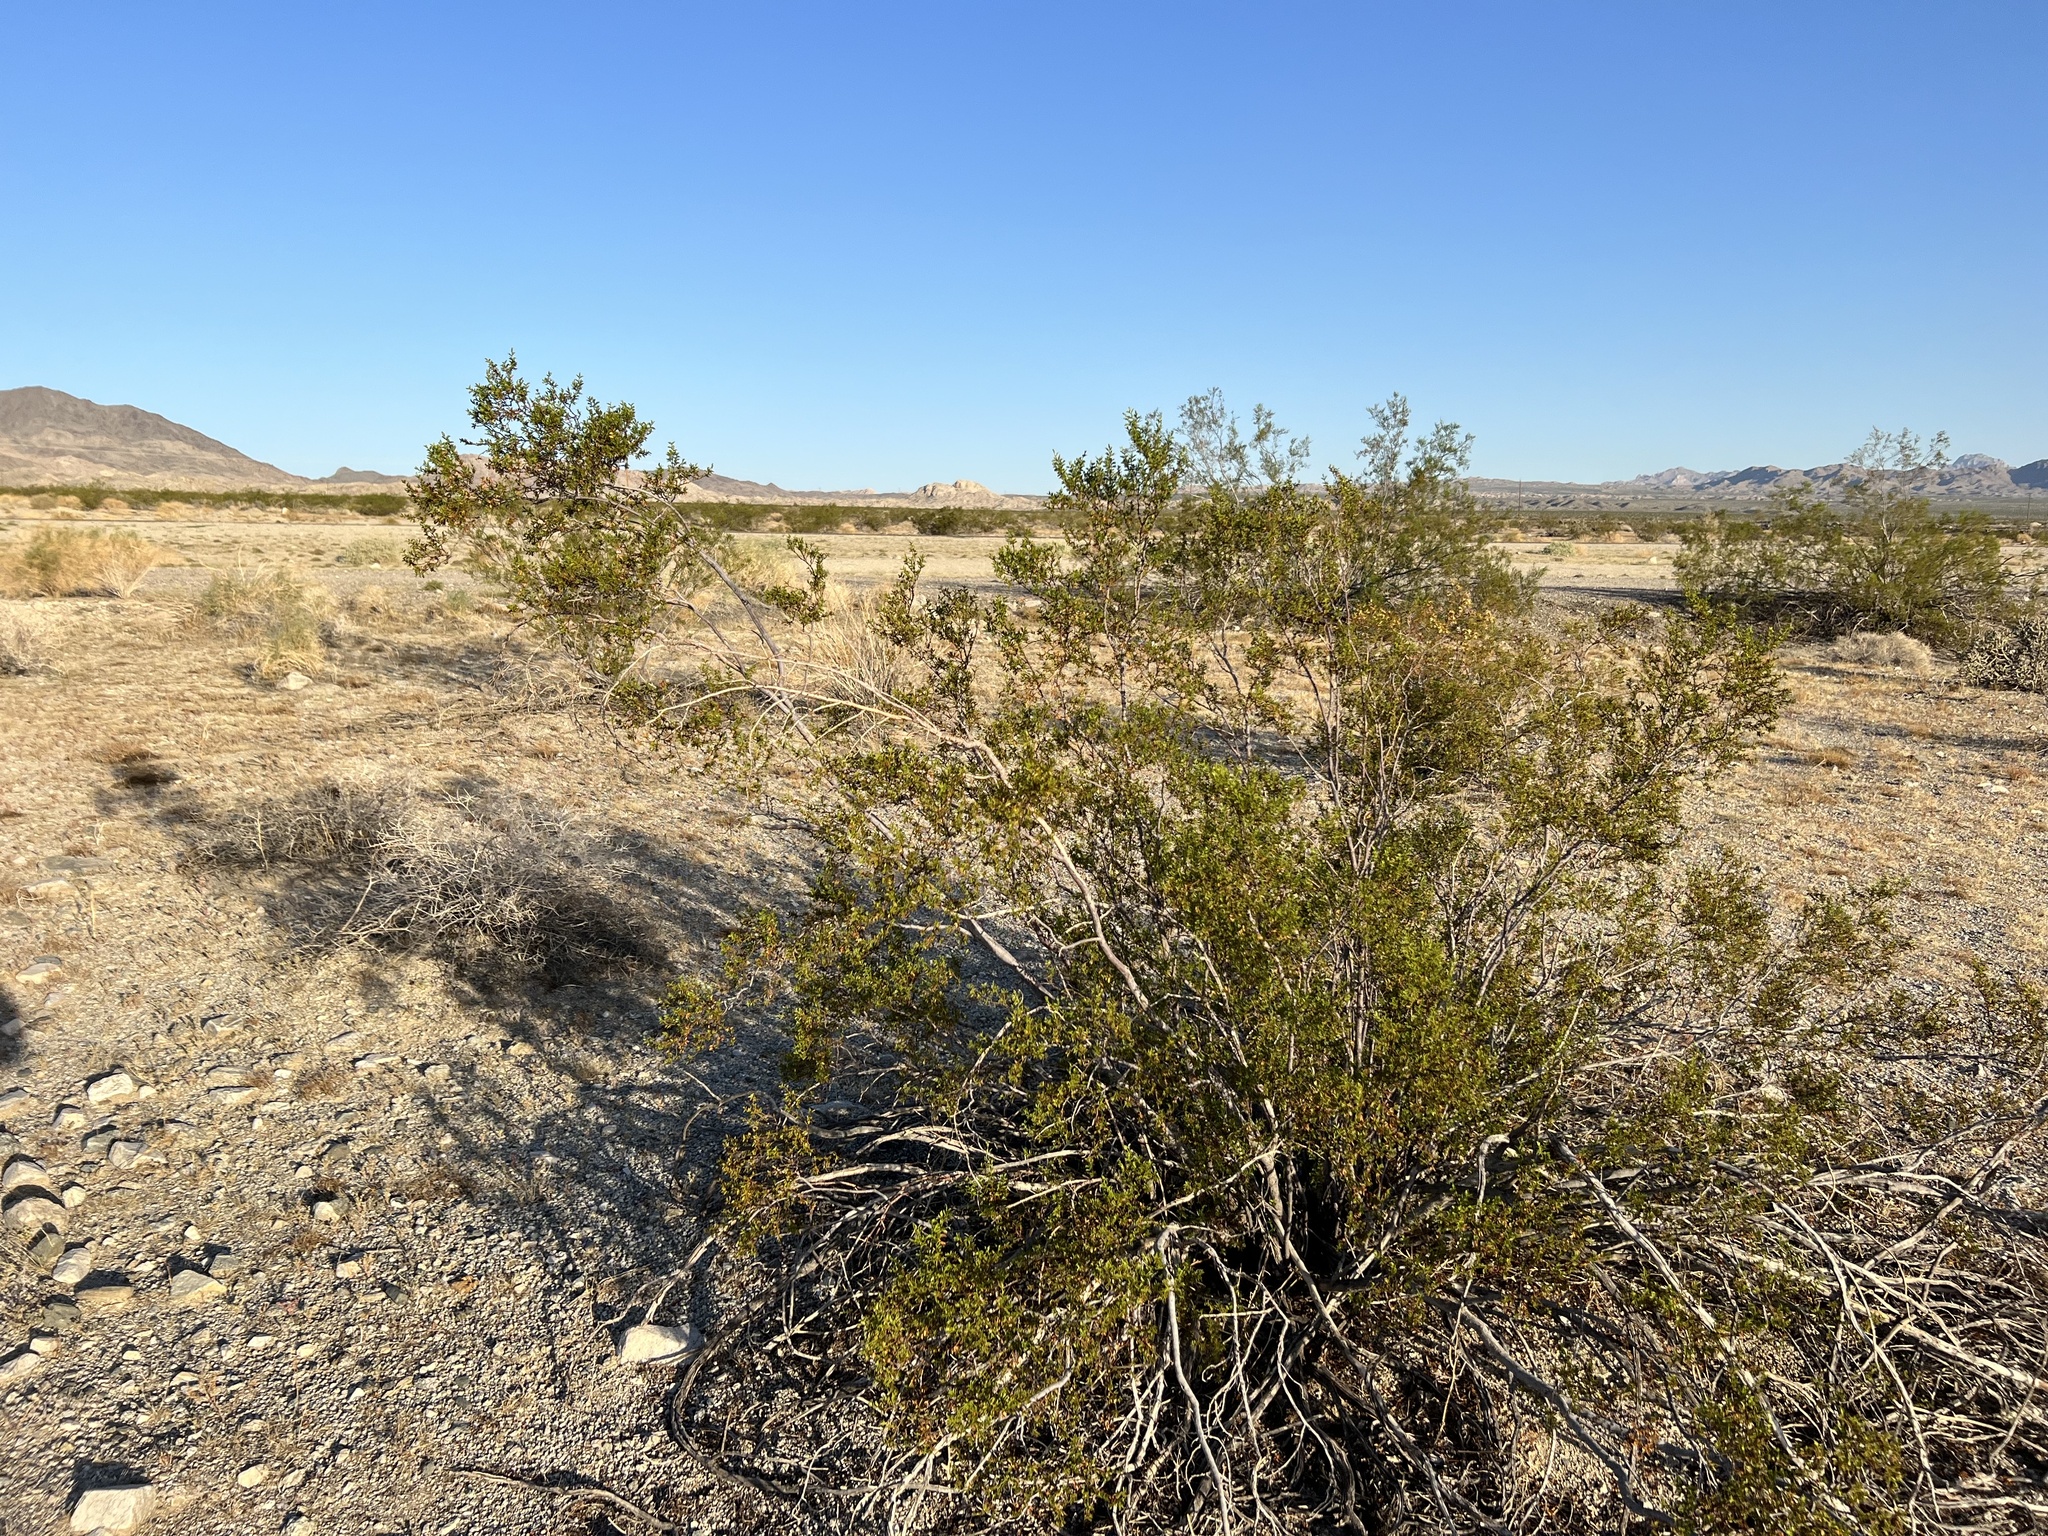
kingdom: Plantae
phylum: Tracheophyta
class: Magnoliopsida
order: Zygophyllales
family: Zygophyllaceae
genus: Larrea
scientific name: Larrea tridentata
